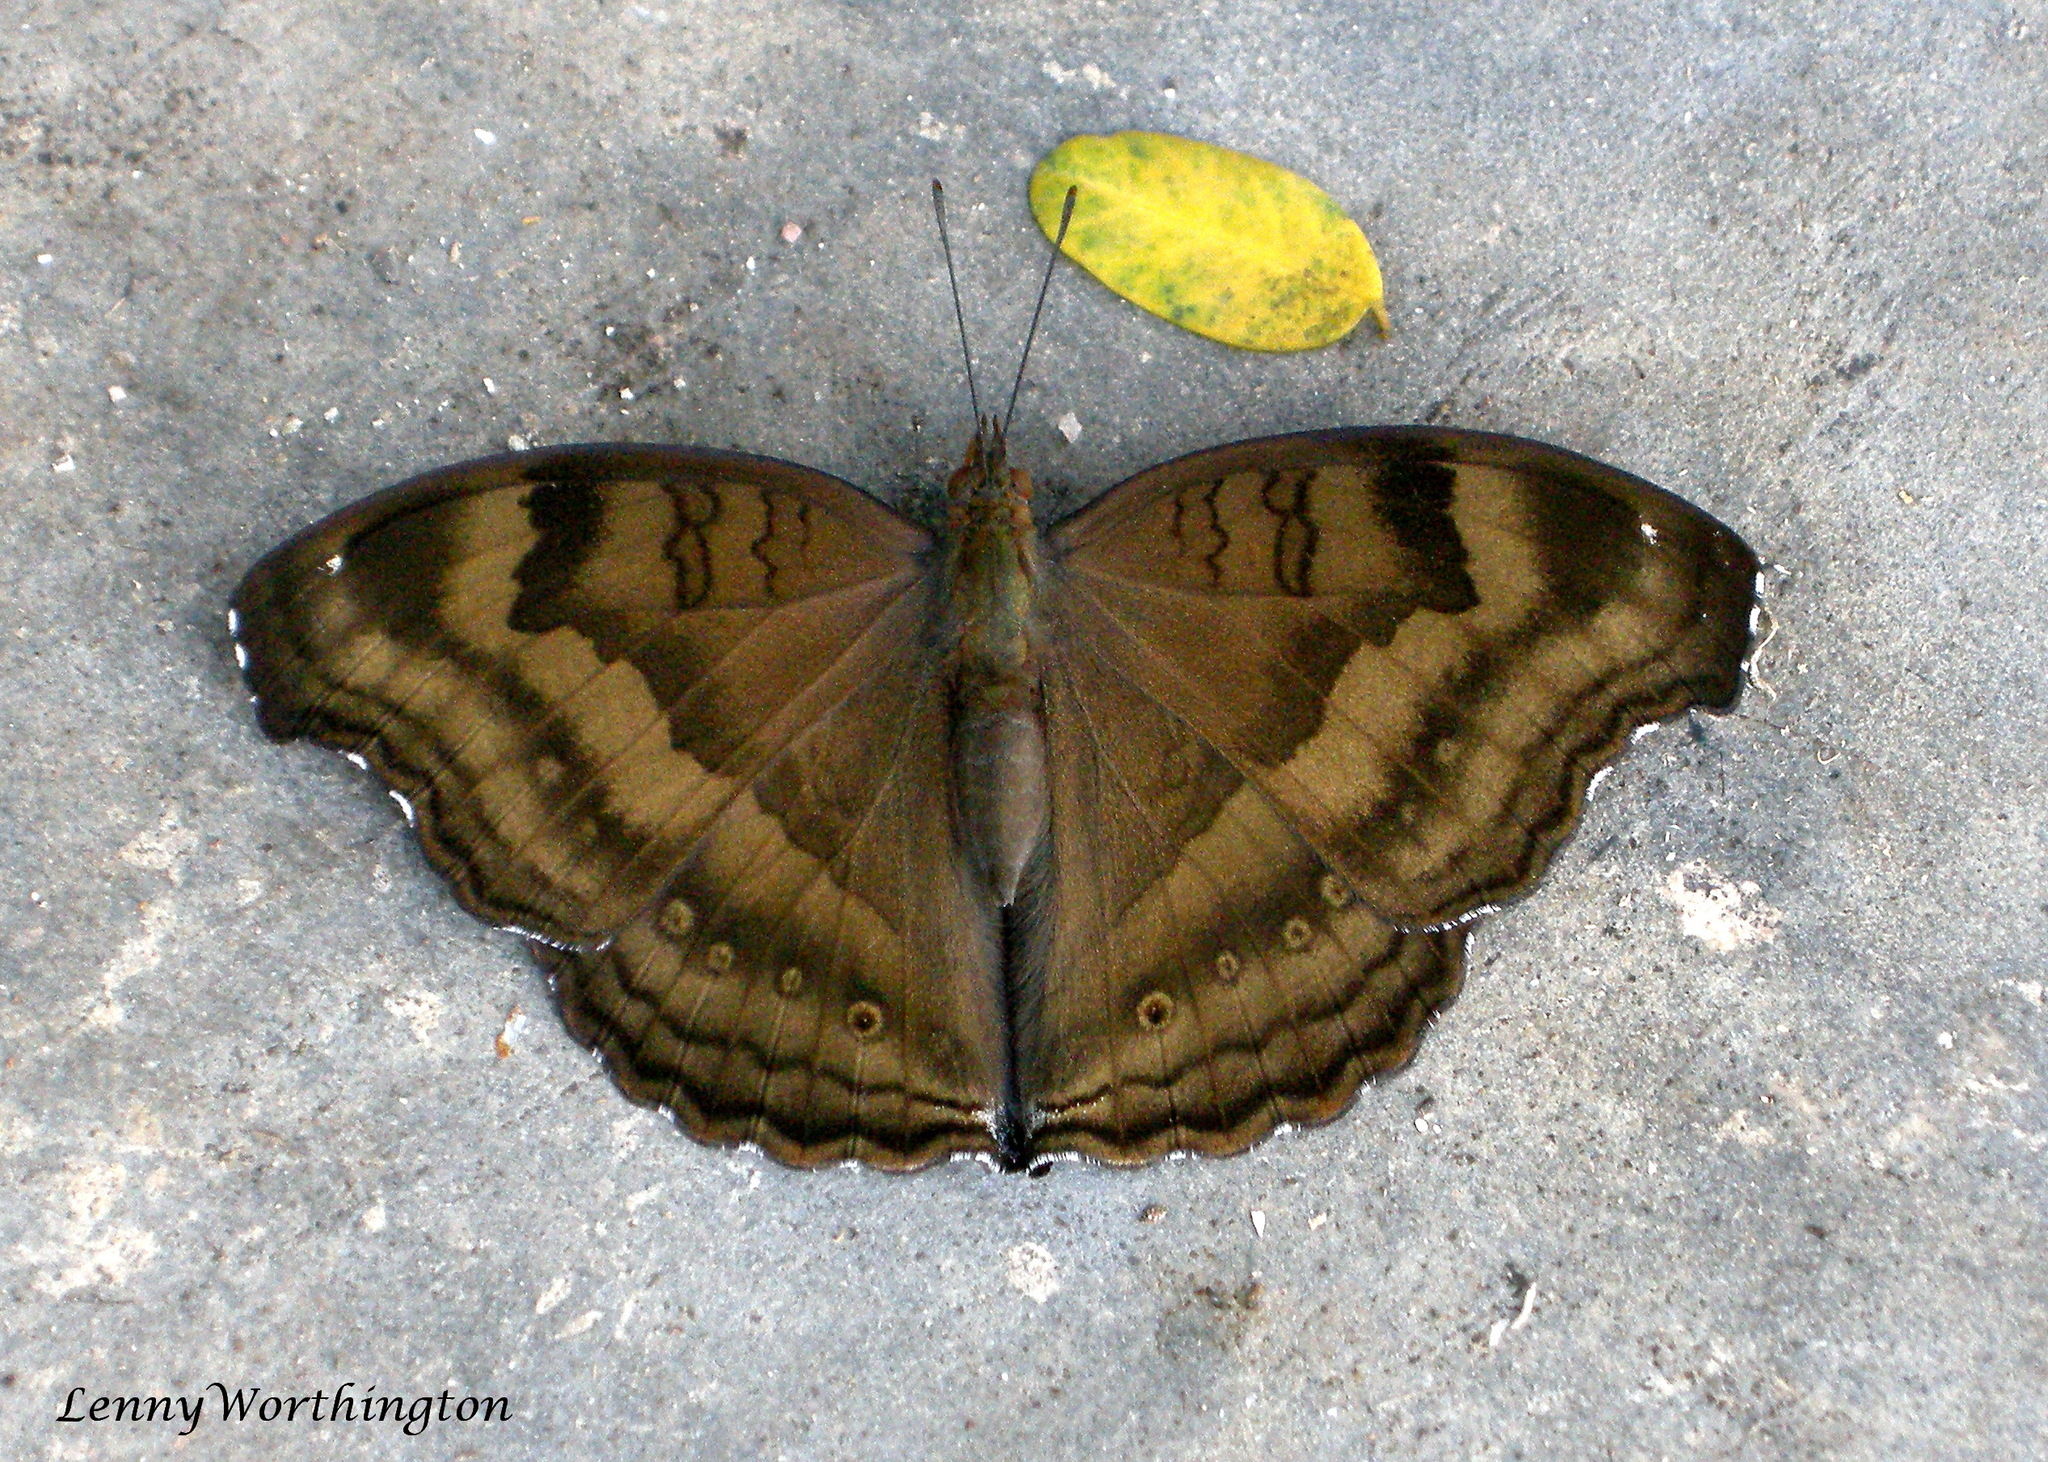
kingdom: Animalia
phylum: Arthropoda
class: Insecta
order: Lepidoptera
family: Nymphalidae
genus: Junonia
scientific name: Junonia iphita
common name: Chocolate pansy
